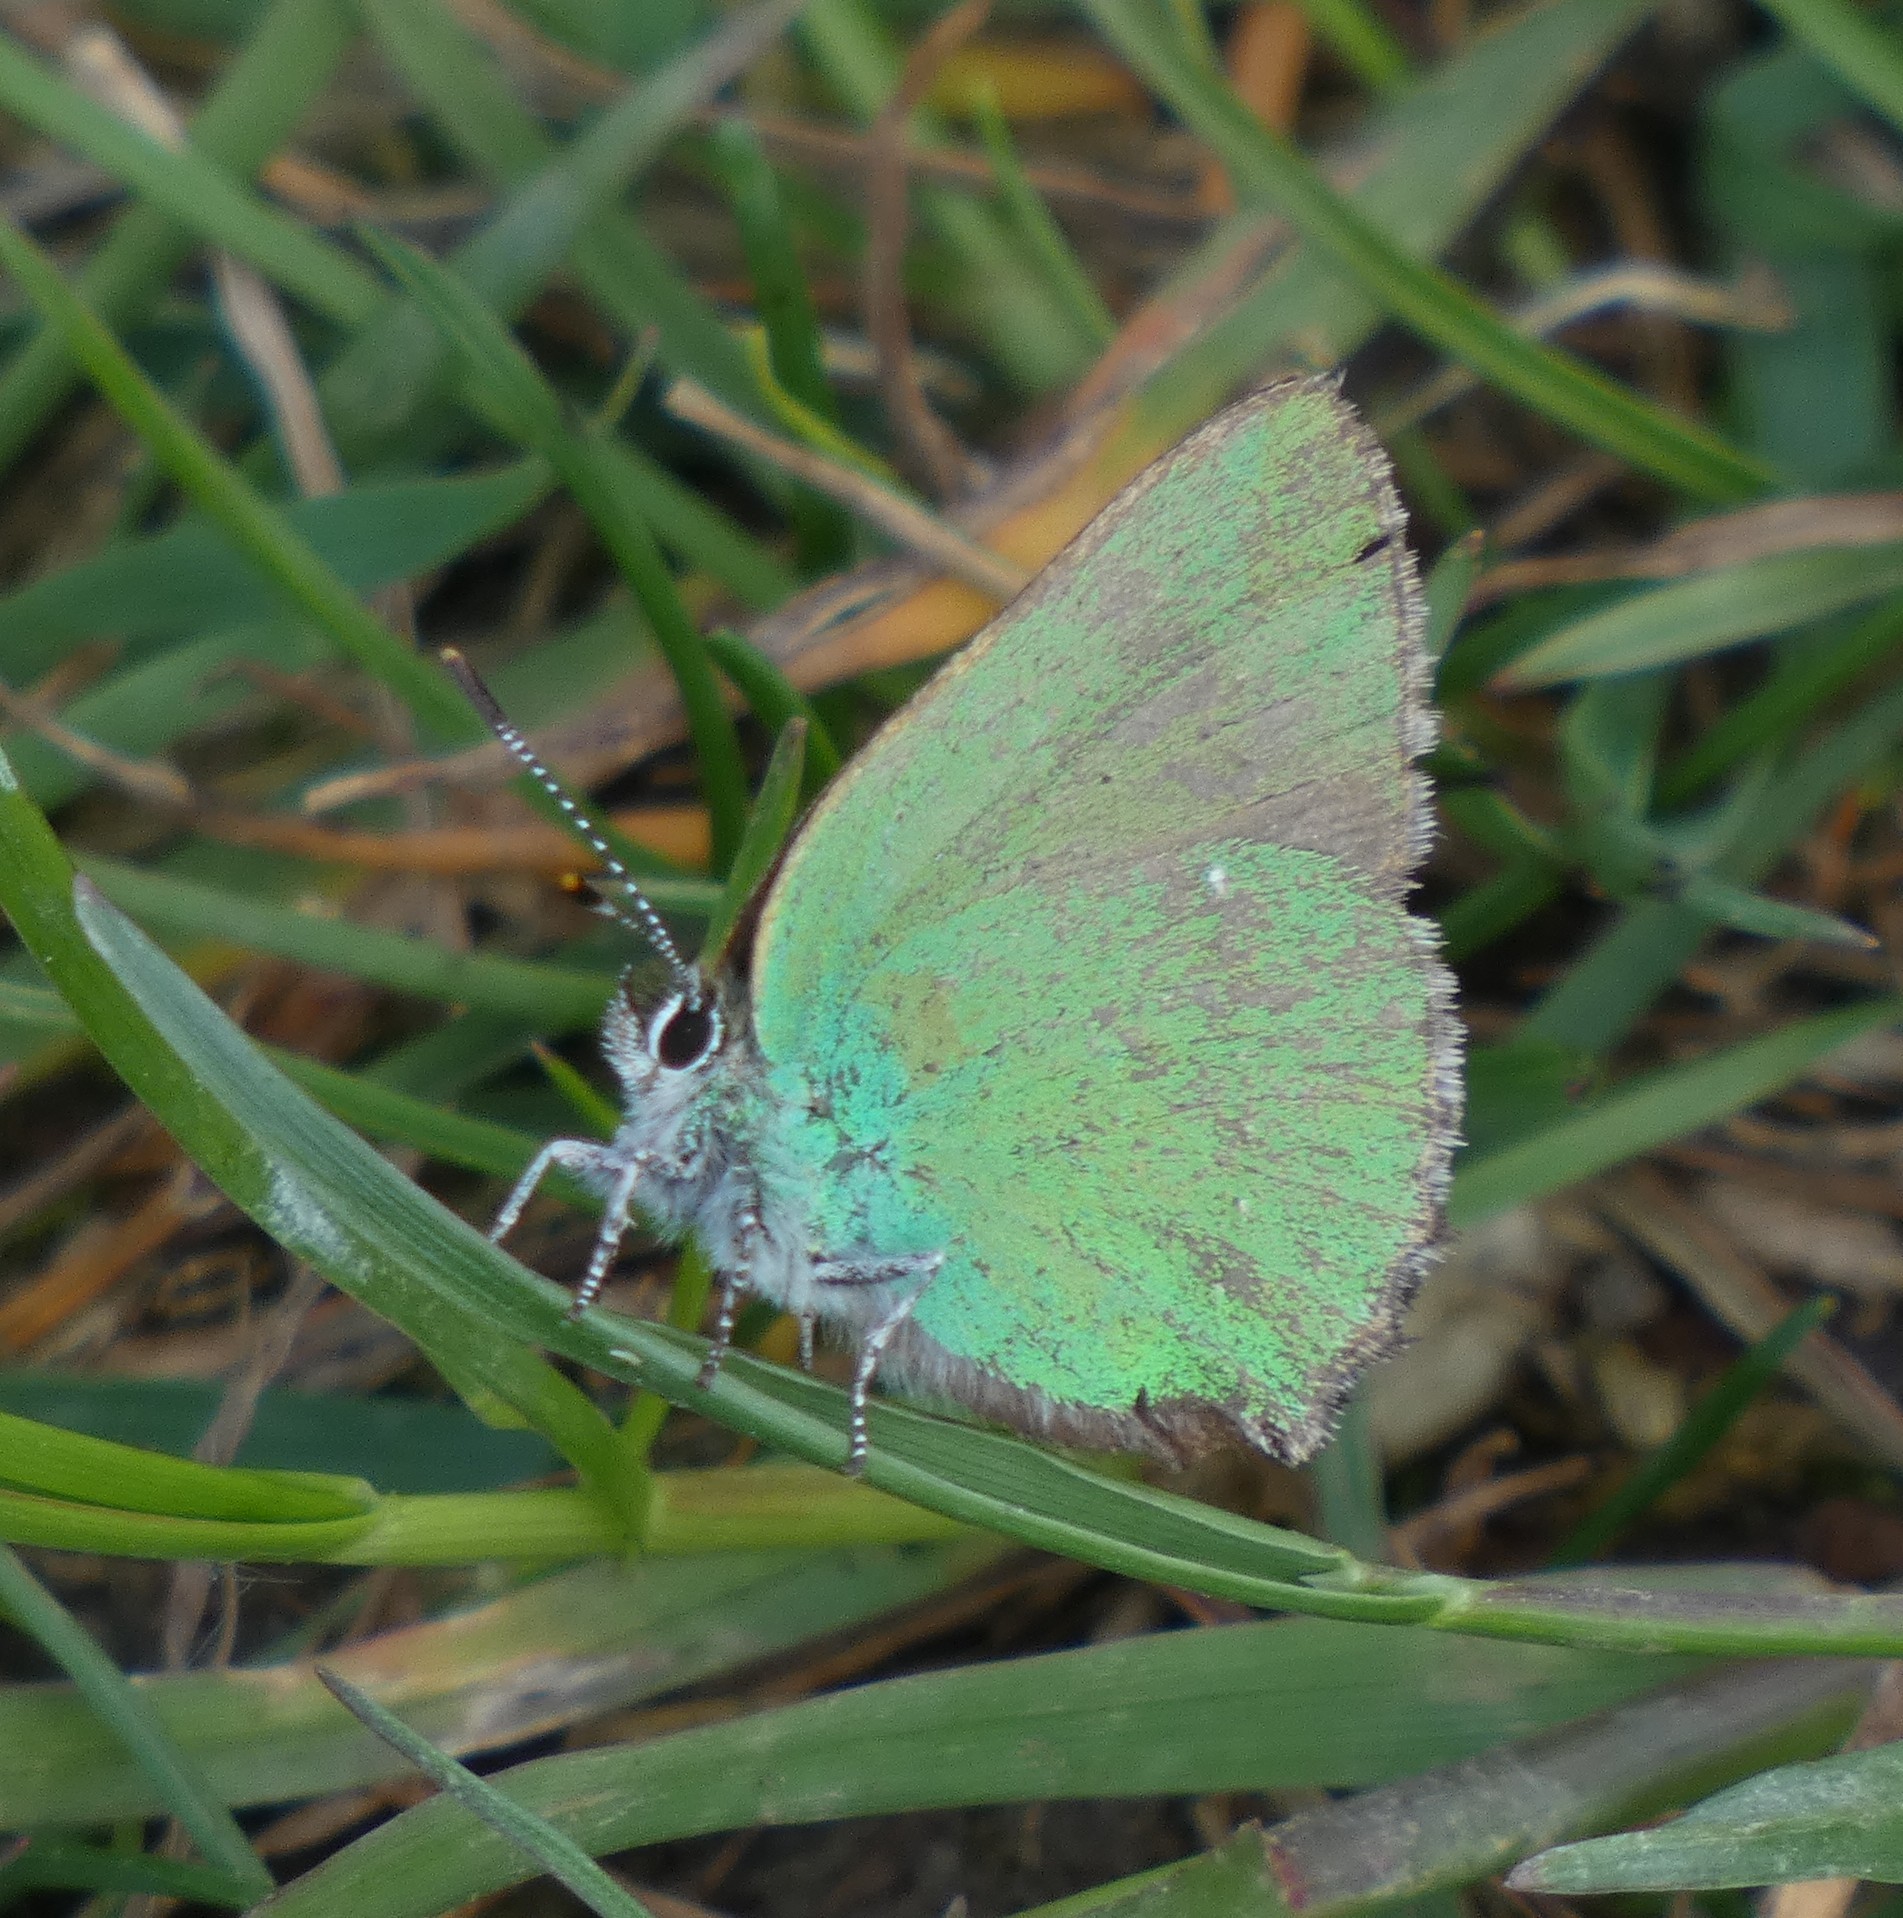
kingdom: Animalia
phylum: Arthropoda
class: Insecta
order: Lepidoptera
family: Lycaenidae
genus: Callophrys
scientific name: Callophrys rubi
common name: Green hairstreak
